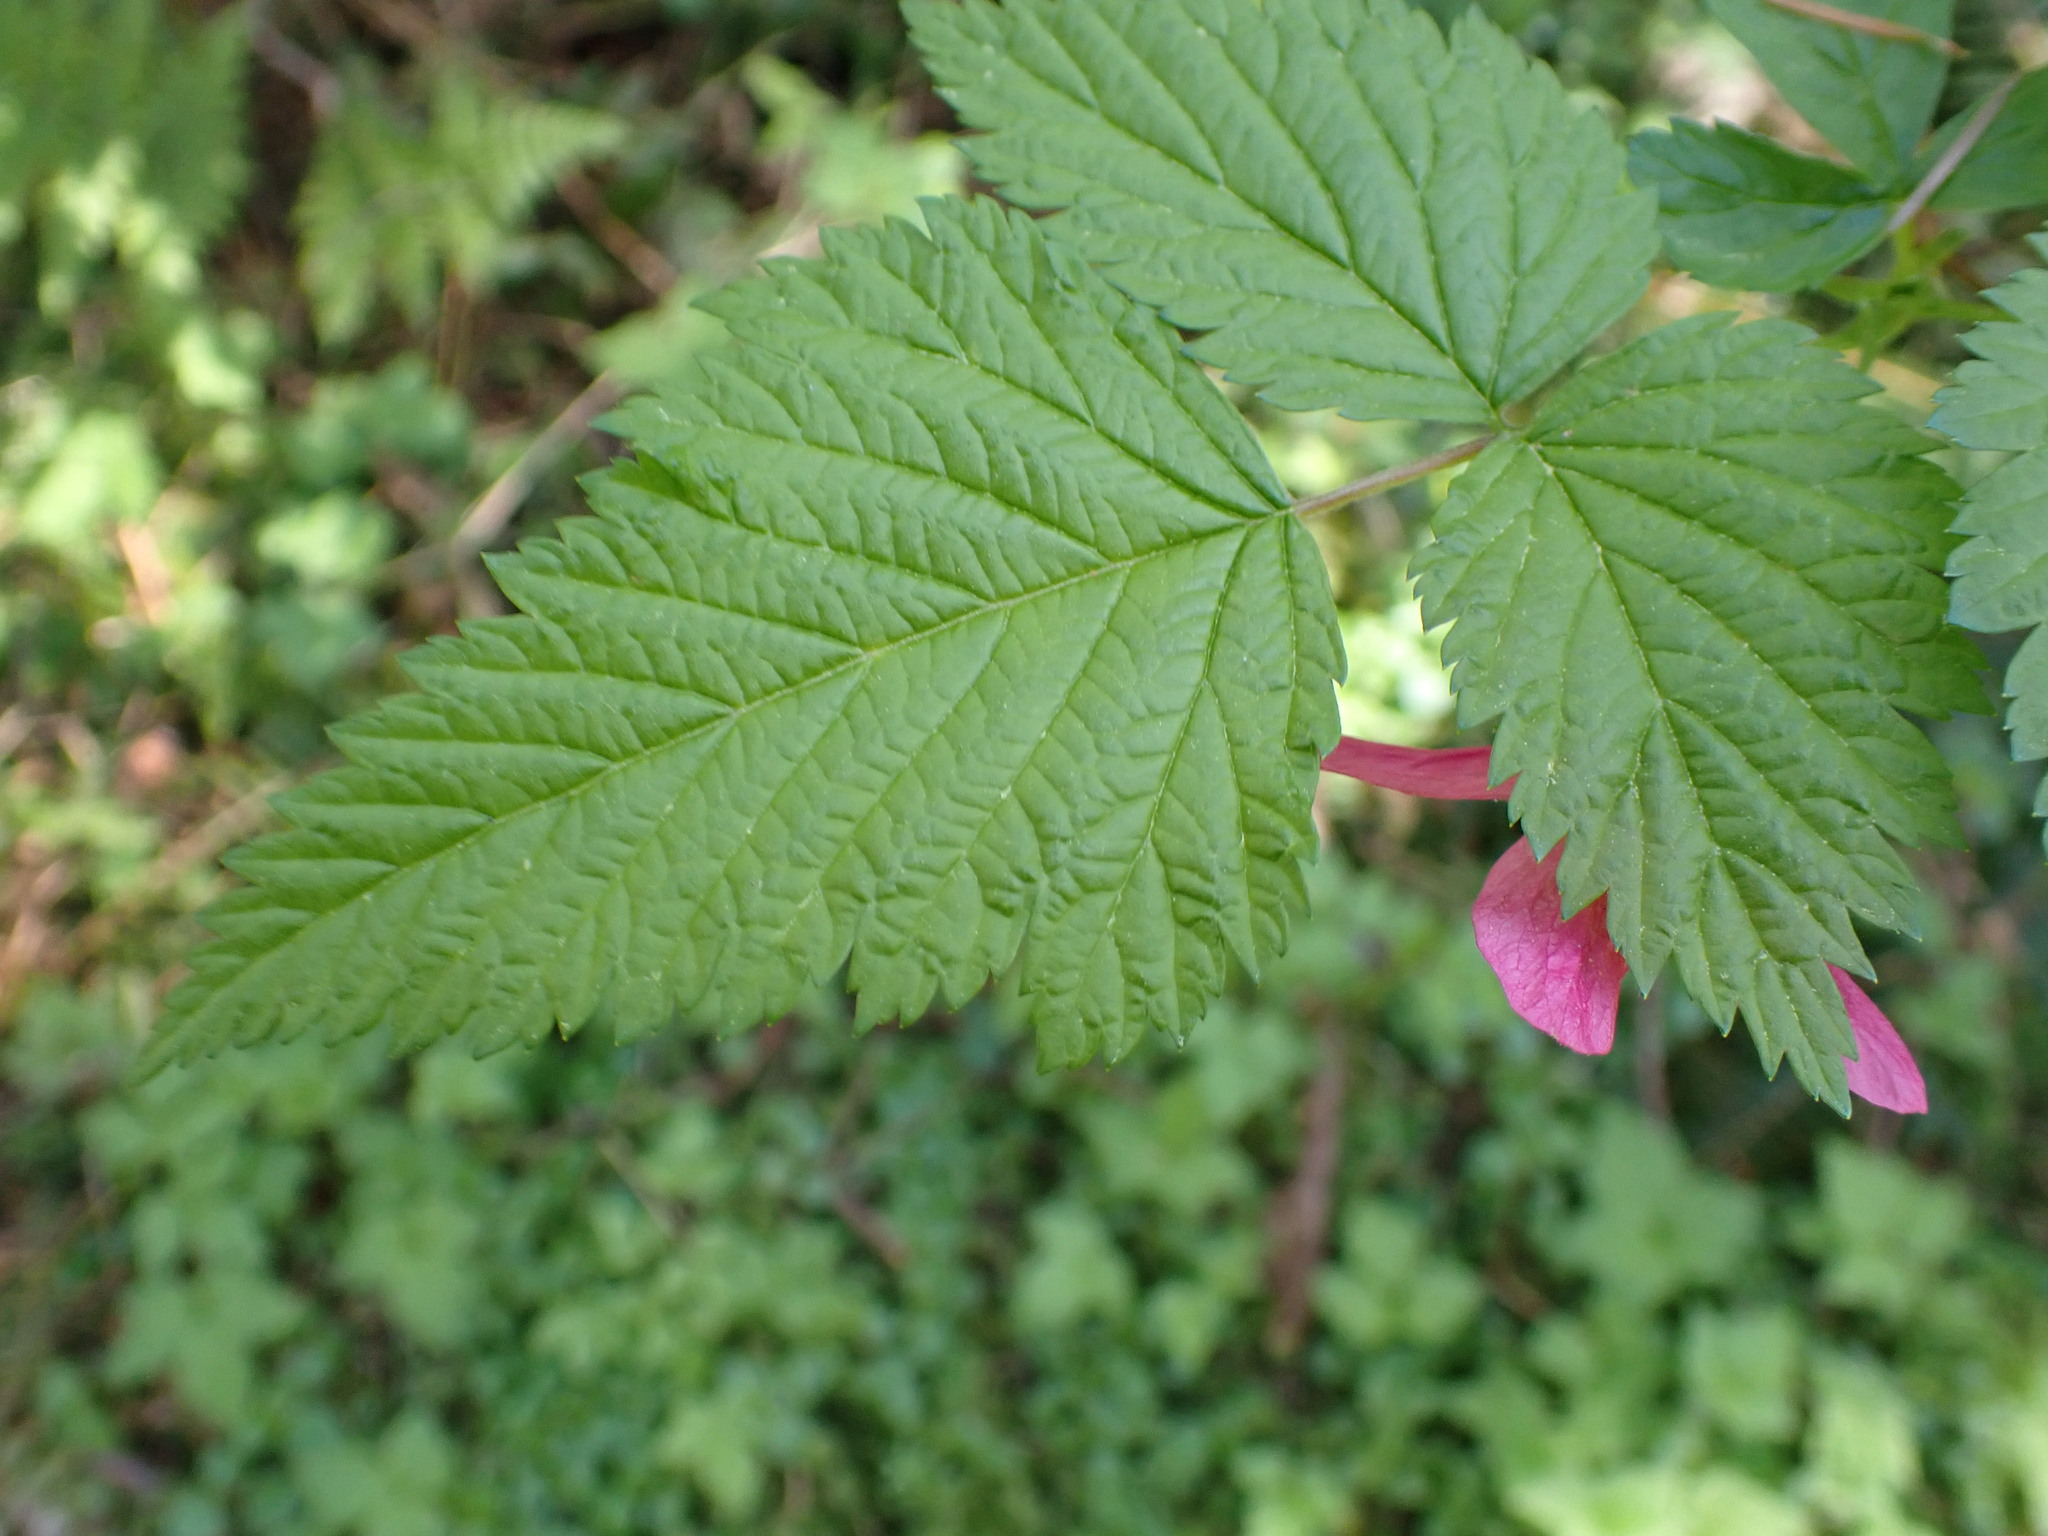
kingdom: Plantae
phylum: Tracheophyta
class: Magnoliopsida
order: Rosales
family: Rosaceae
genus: Rubus
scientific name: Rubus spectabilis
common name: Salmonberry
